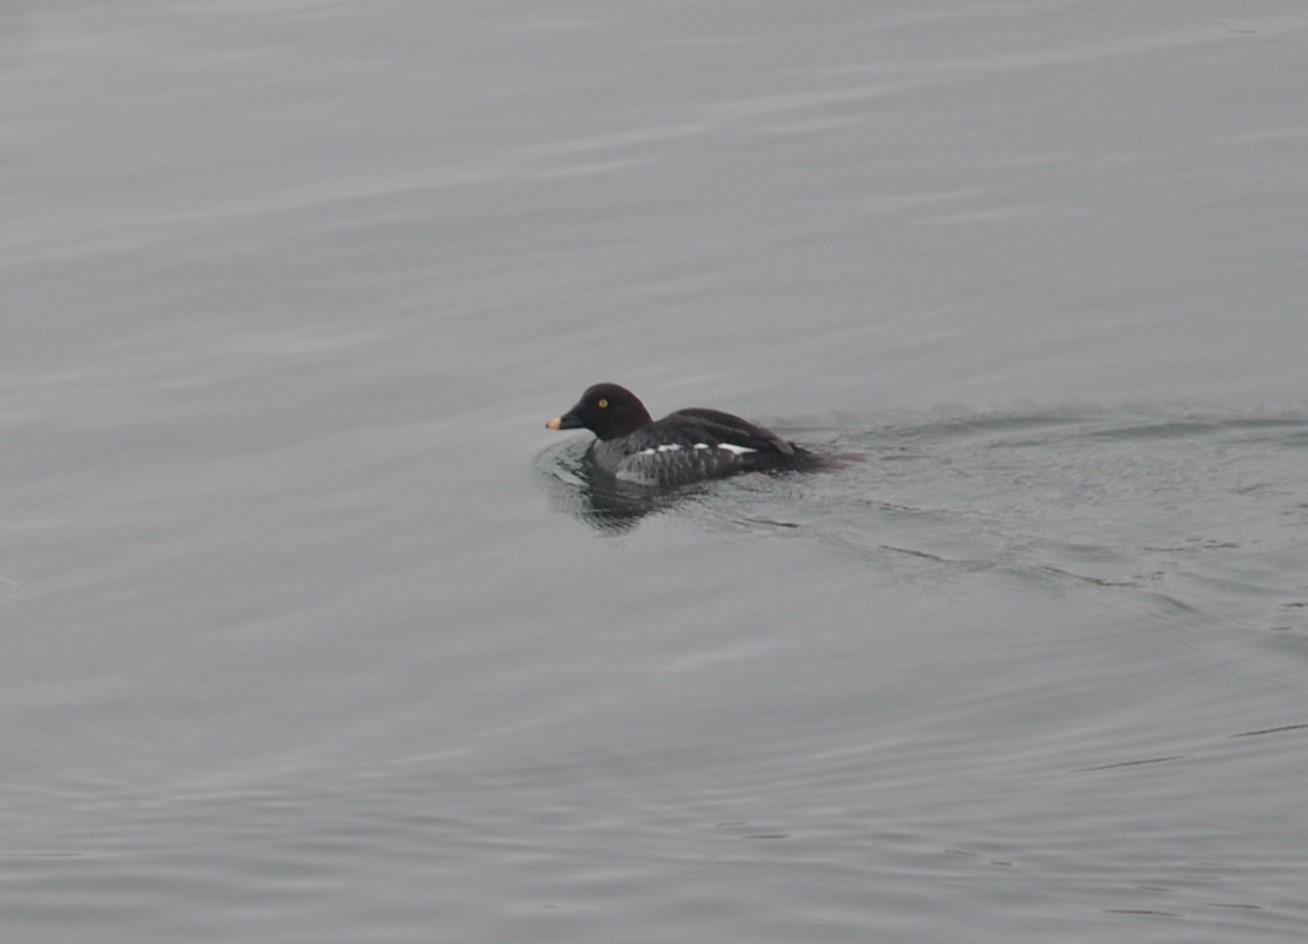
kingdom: Animalia
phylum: Chordata
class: Aves
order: Anseriformes
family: Anatidae
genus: Bucephala
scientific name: Bucephala clangula
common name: Common goldeneye
